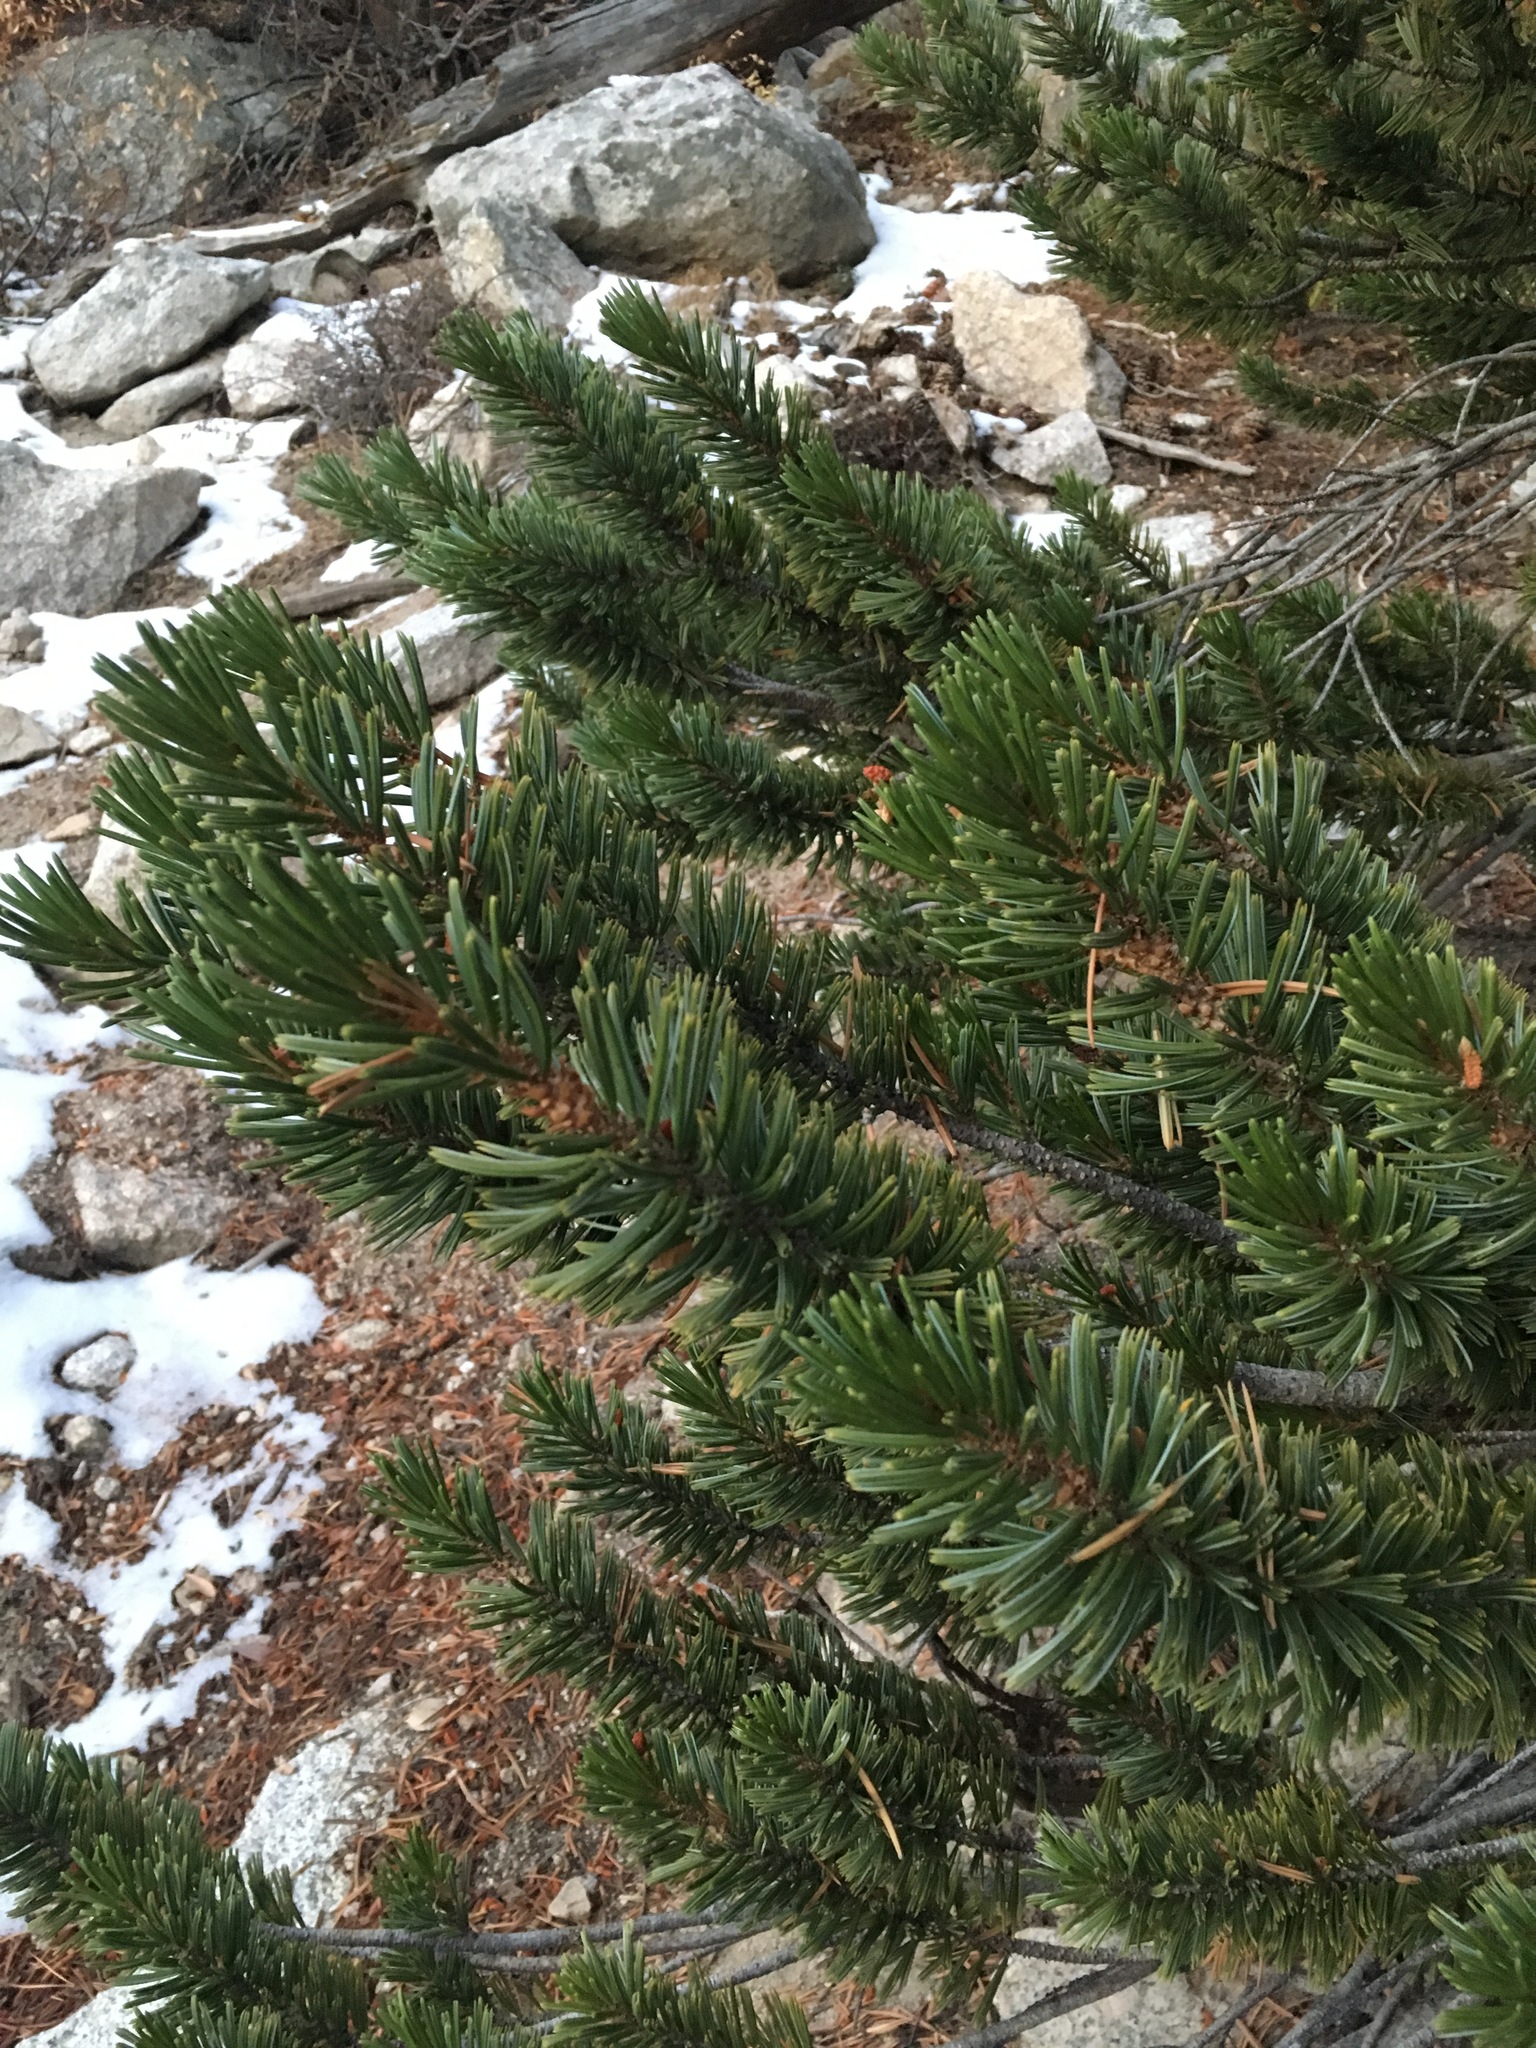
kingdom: Plantae
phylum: Tracheophyta
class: Pinopsida
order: Pinales
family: Pinaceae
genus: Pinus
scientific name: Pinus balfouriana
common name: Foxtail pine
